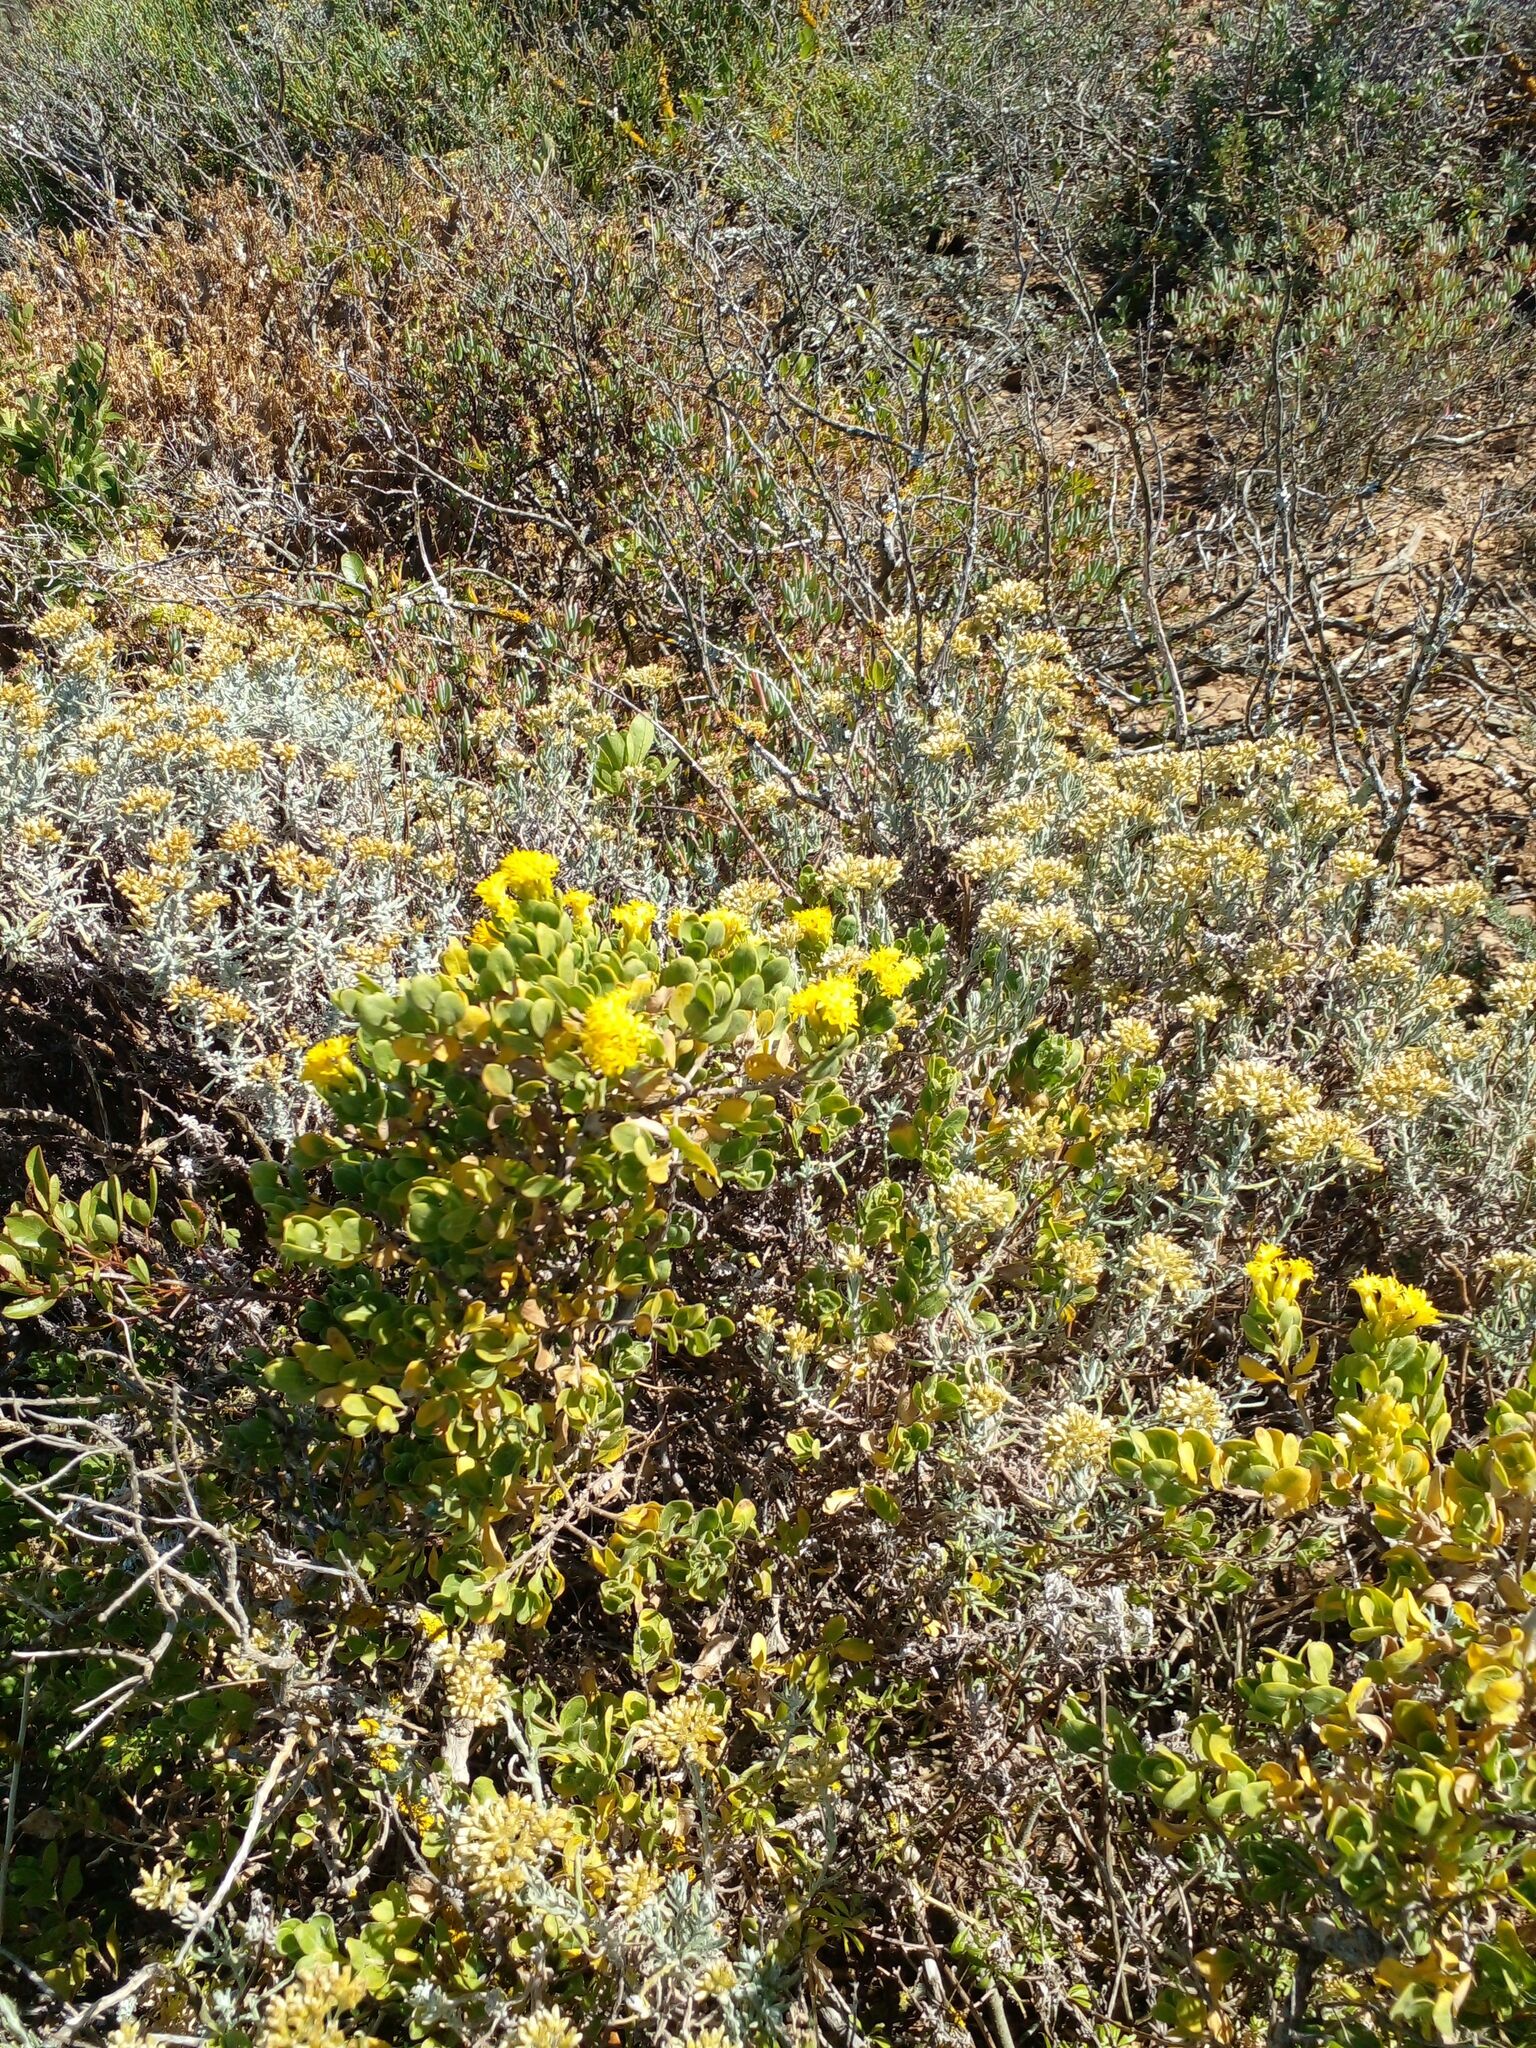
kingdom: Plantae
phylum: Tracheophyta
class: Magnoliopsida
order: Asterales
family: Asteraceae
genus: Pteronia
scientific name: Pteronia divaricata
